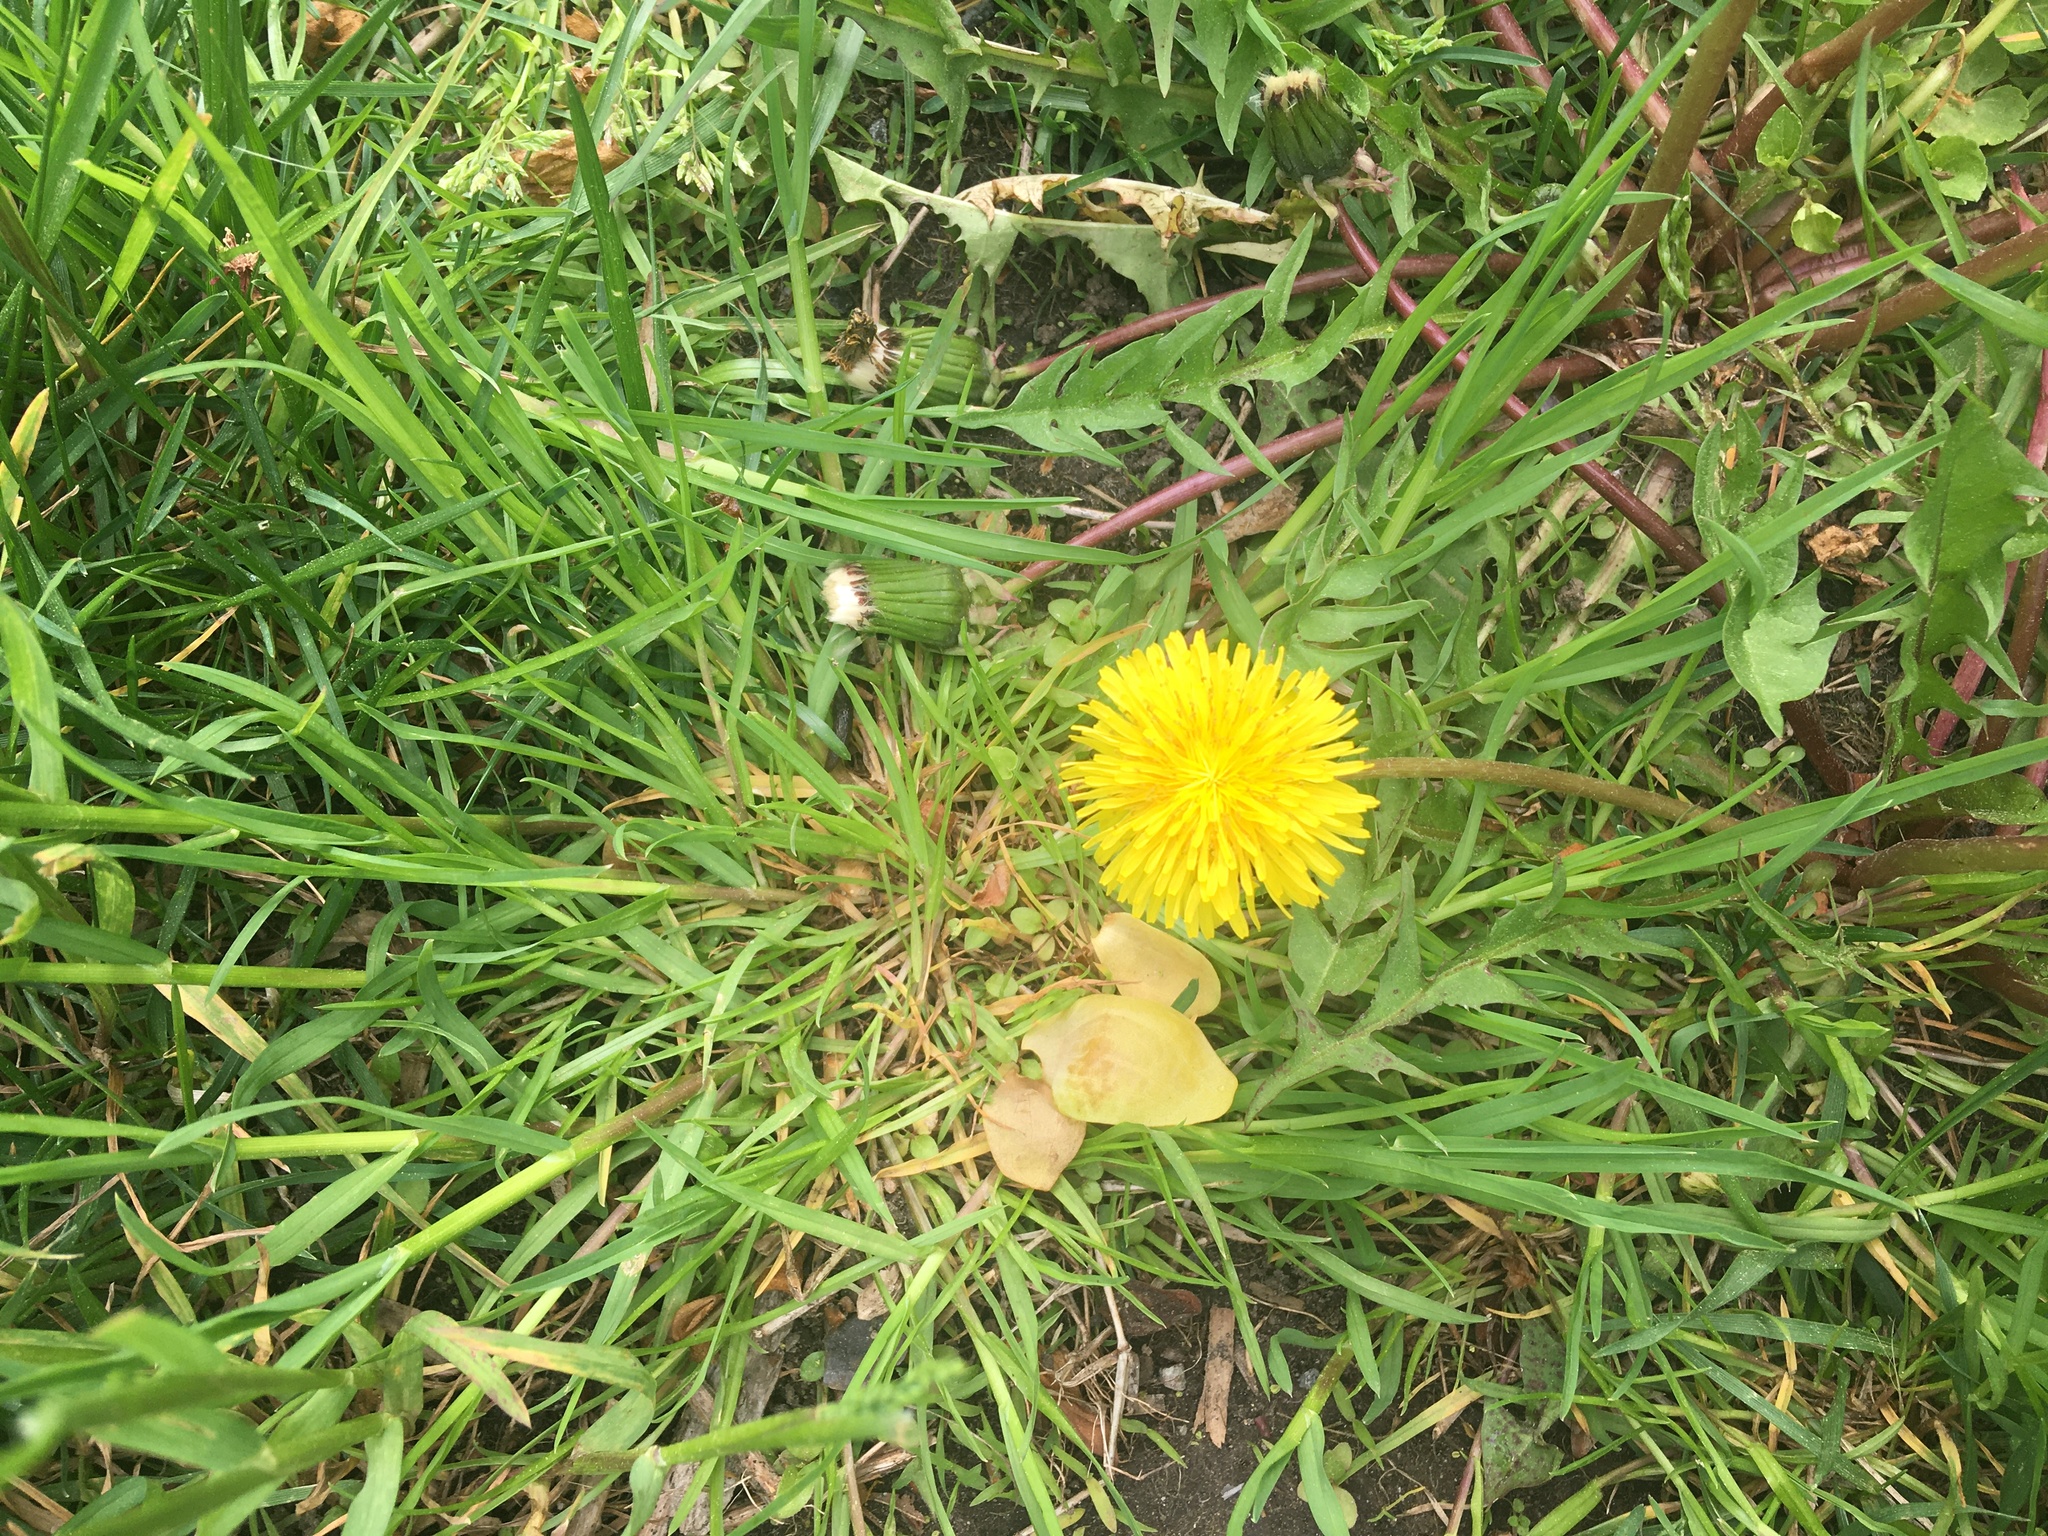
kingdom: Plantae
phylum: Tracheophyta
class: Magnoliopsida
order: Asterales
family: Asteraceae
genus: Taraxacum
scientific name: Taraxacum
